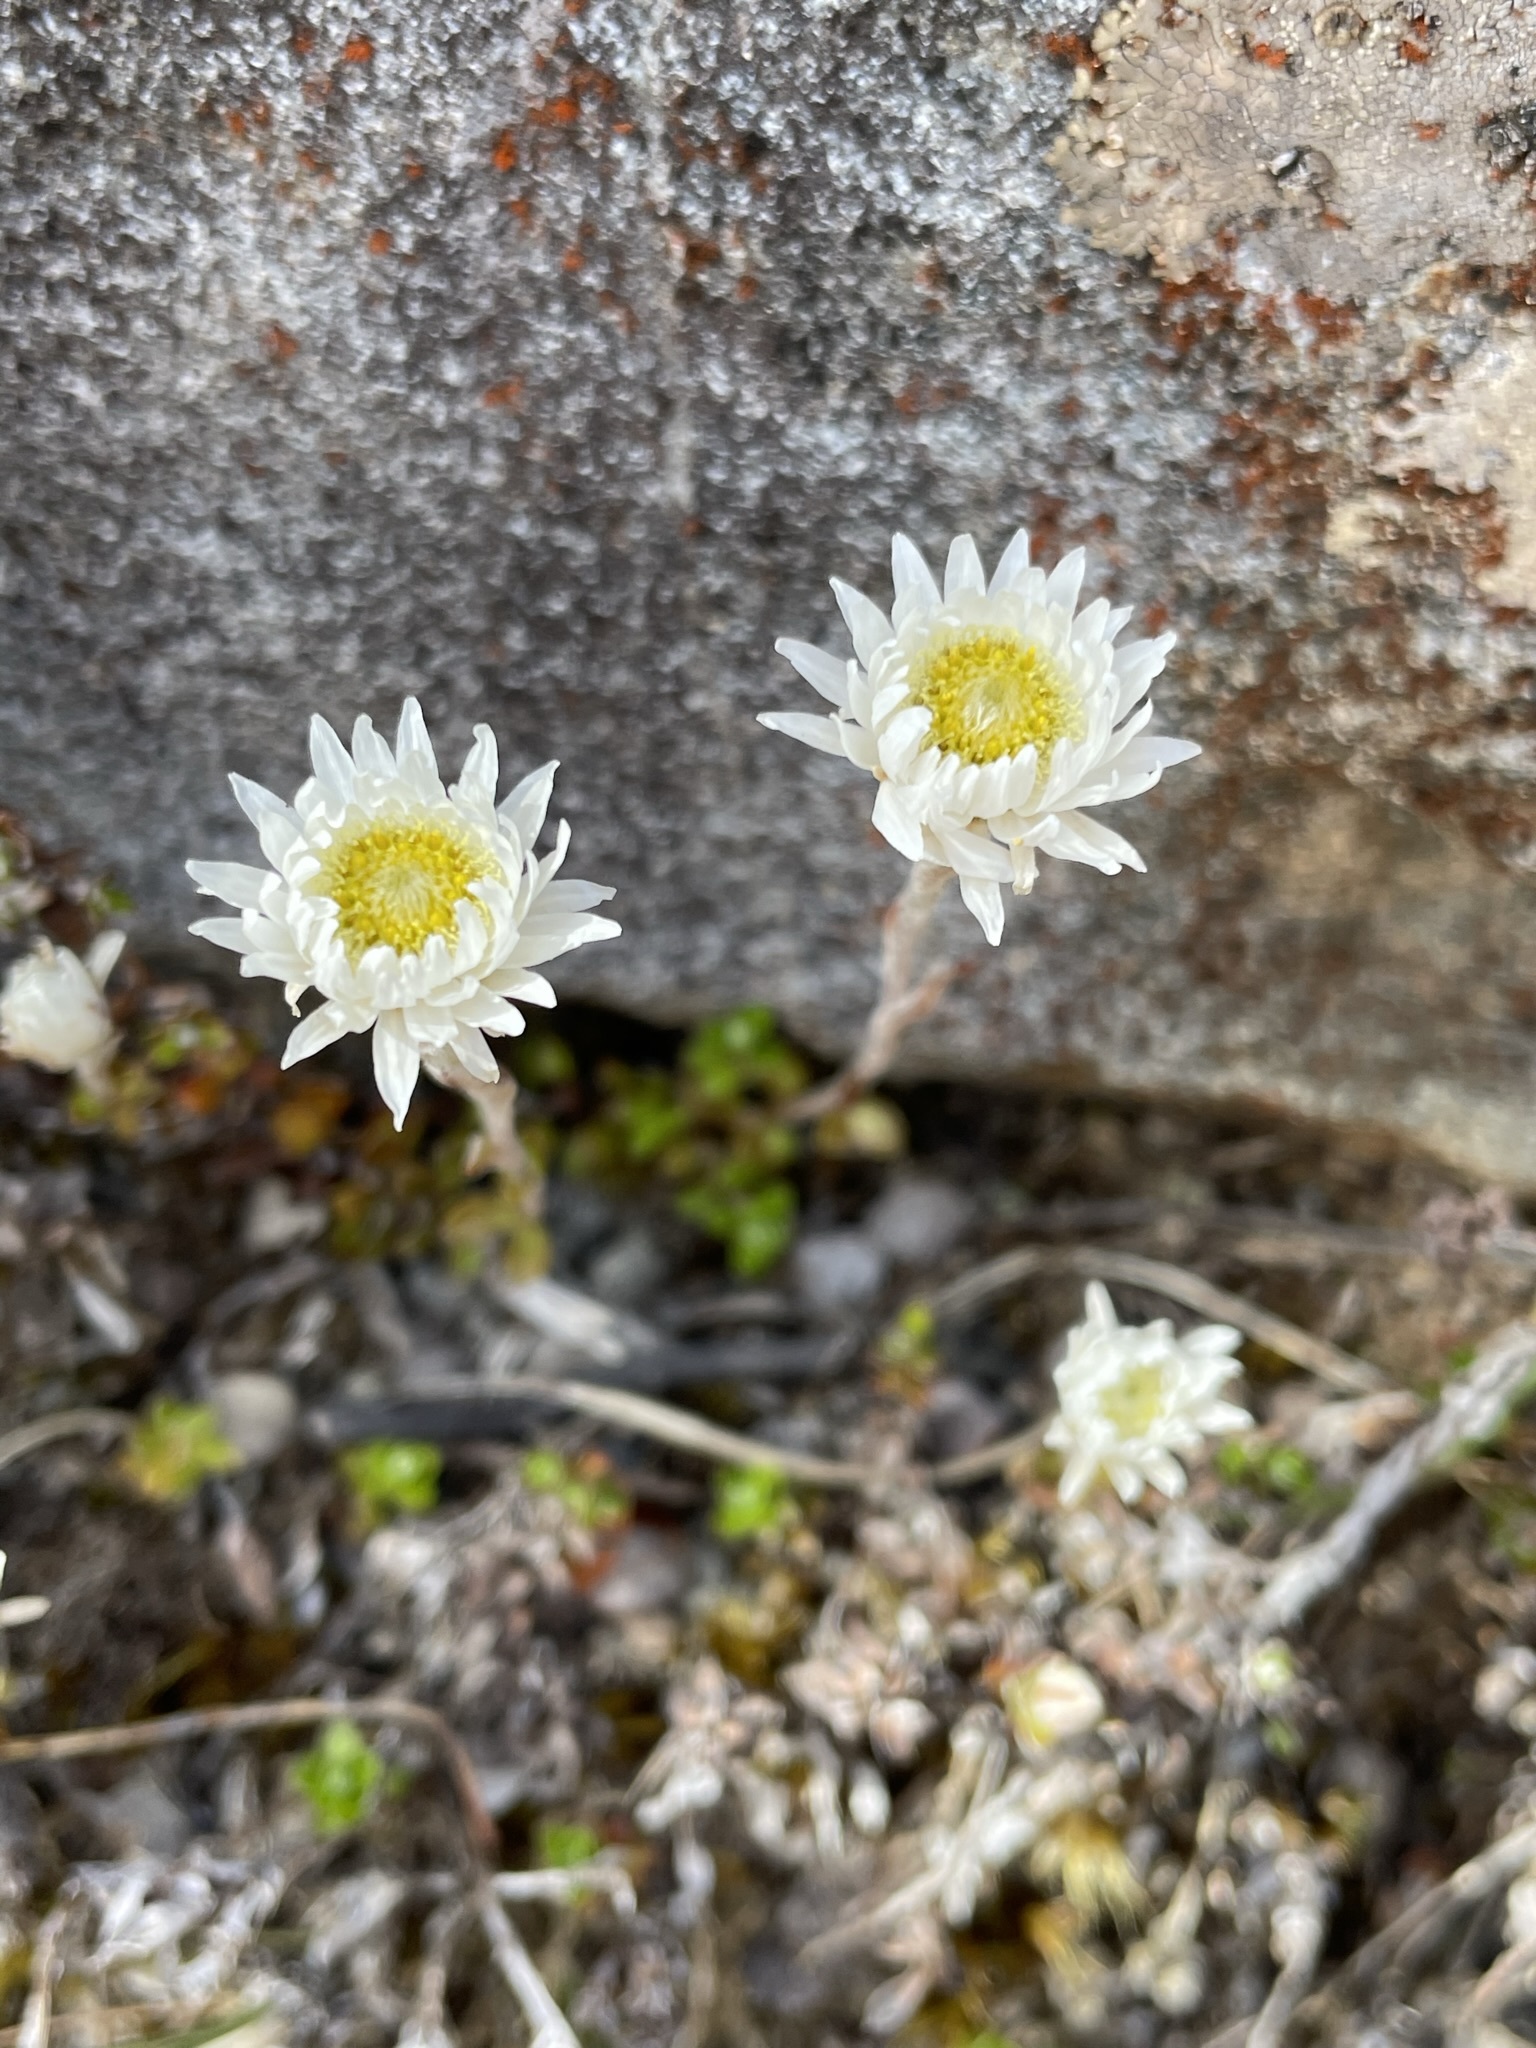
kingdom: Plantae
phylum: Tracheophyta
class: Magnoliopsida
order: Asterales
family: Asteraceae
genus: Anaphalioides
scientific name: Anaphalioides bellidioides
